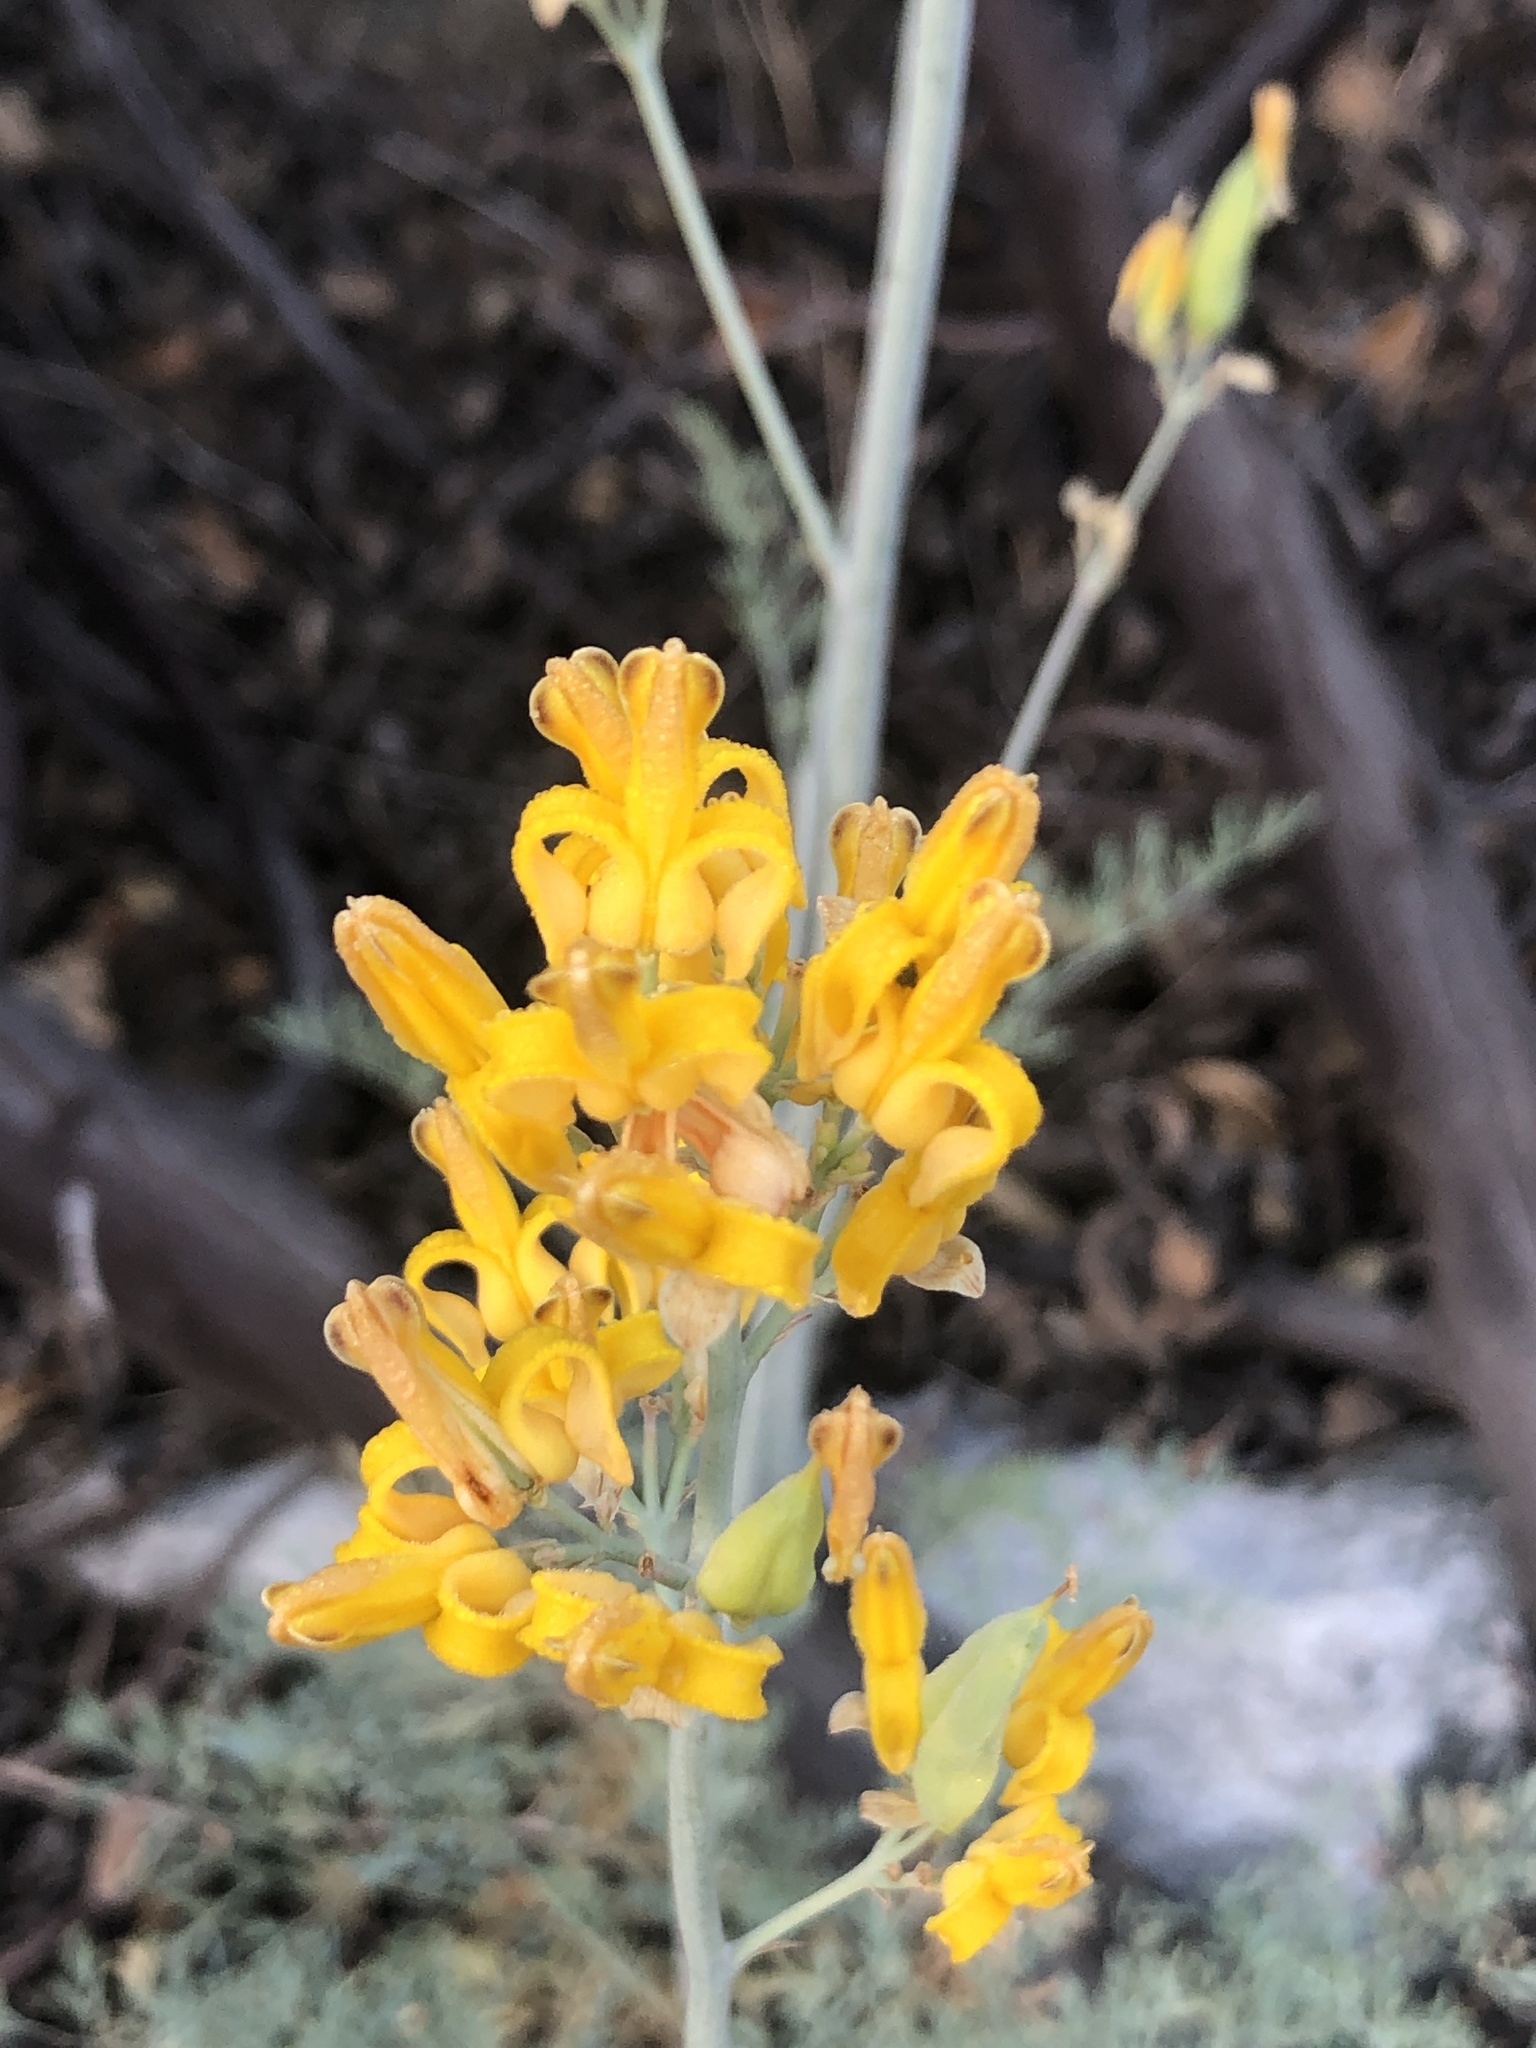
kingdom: Plantae
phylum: Tracheophyta
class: Magnoliopsida
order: Ranunculales
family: Papaveraceae
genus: Ehrendorferia
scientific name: Ehrendorferia chrysantha
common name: Golden eardrops
